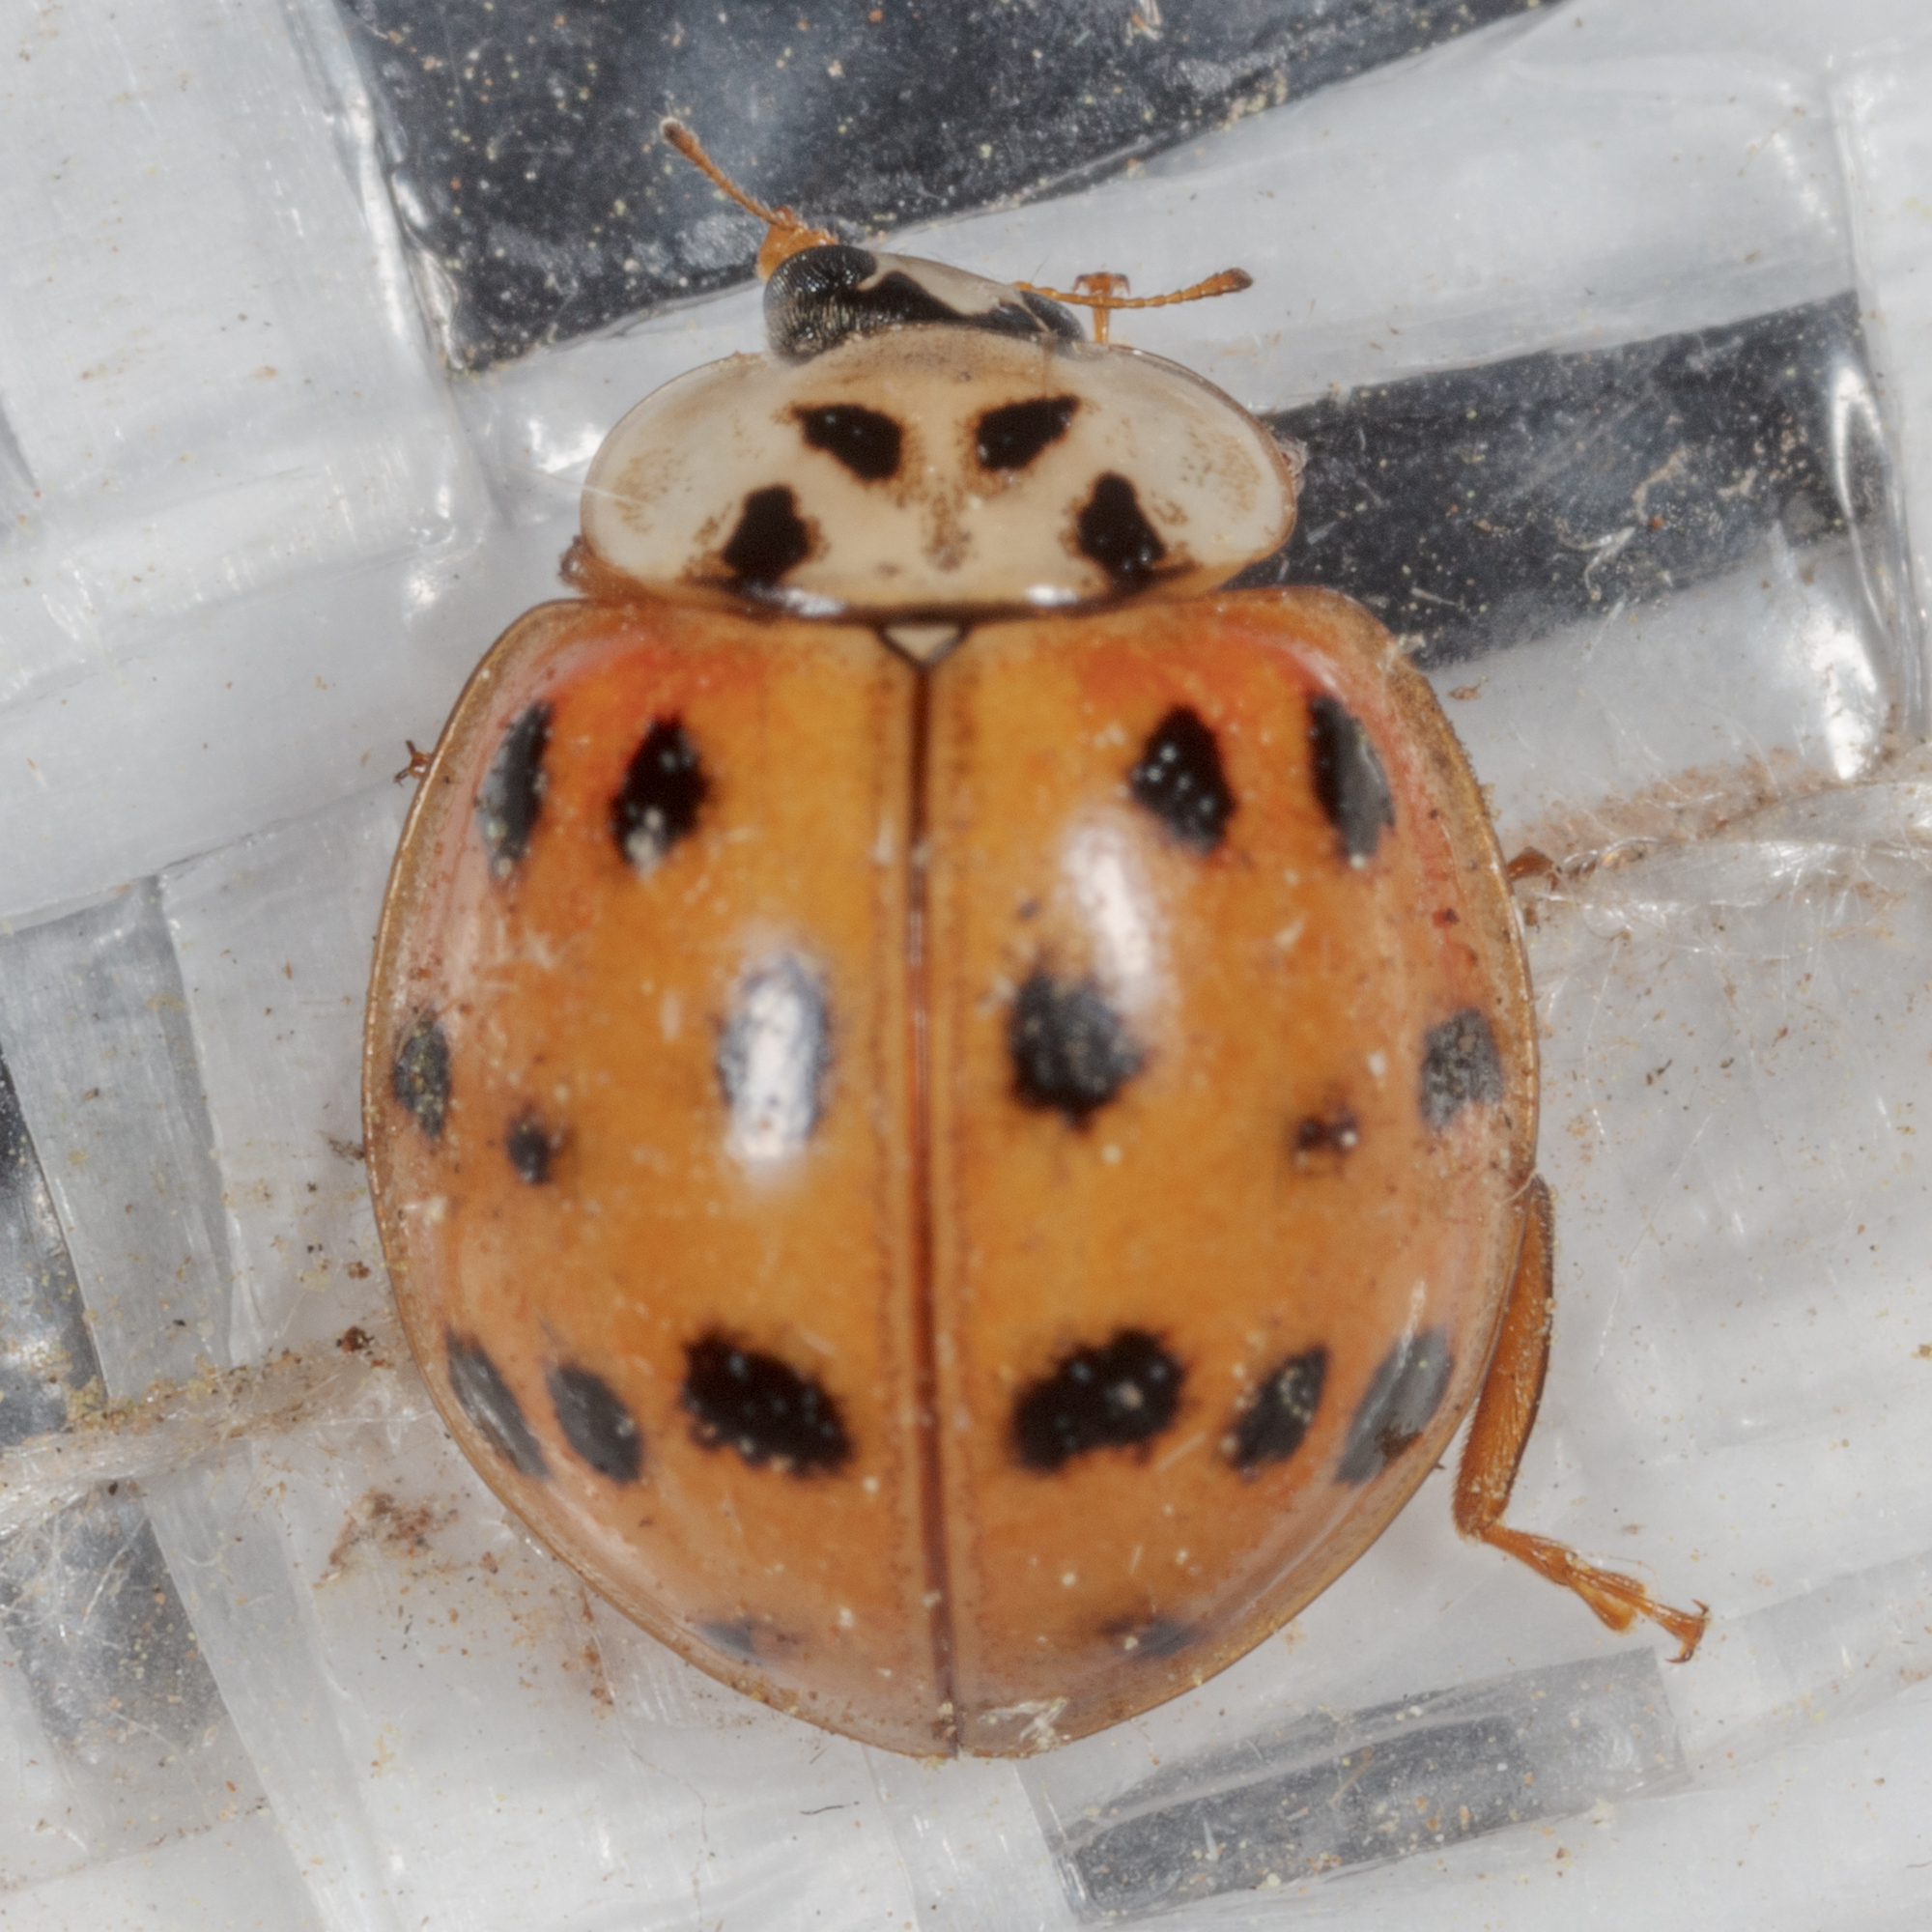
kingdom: Animalia
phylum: Arthropoda
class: Insecta
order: Coleoptera
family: Coccinellidae
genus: Harmonia
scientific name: Harmonia axyridis
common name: Harlequin ladybird
